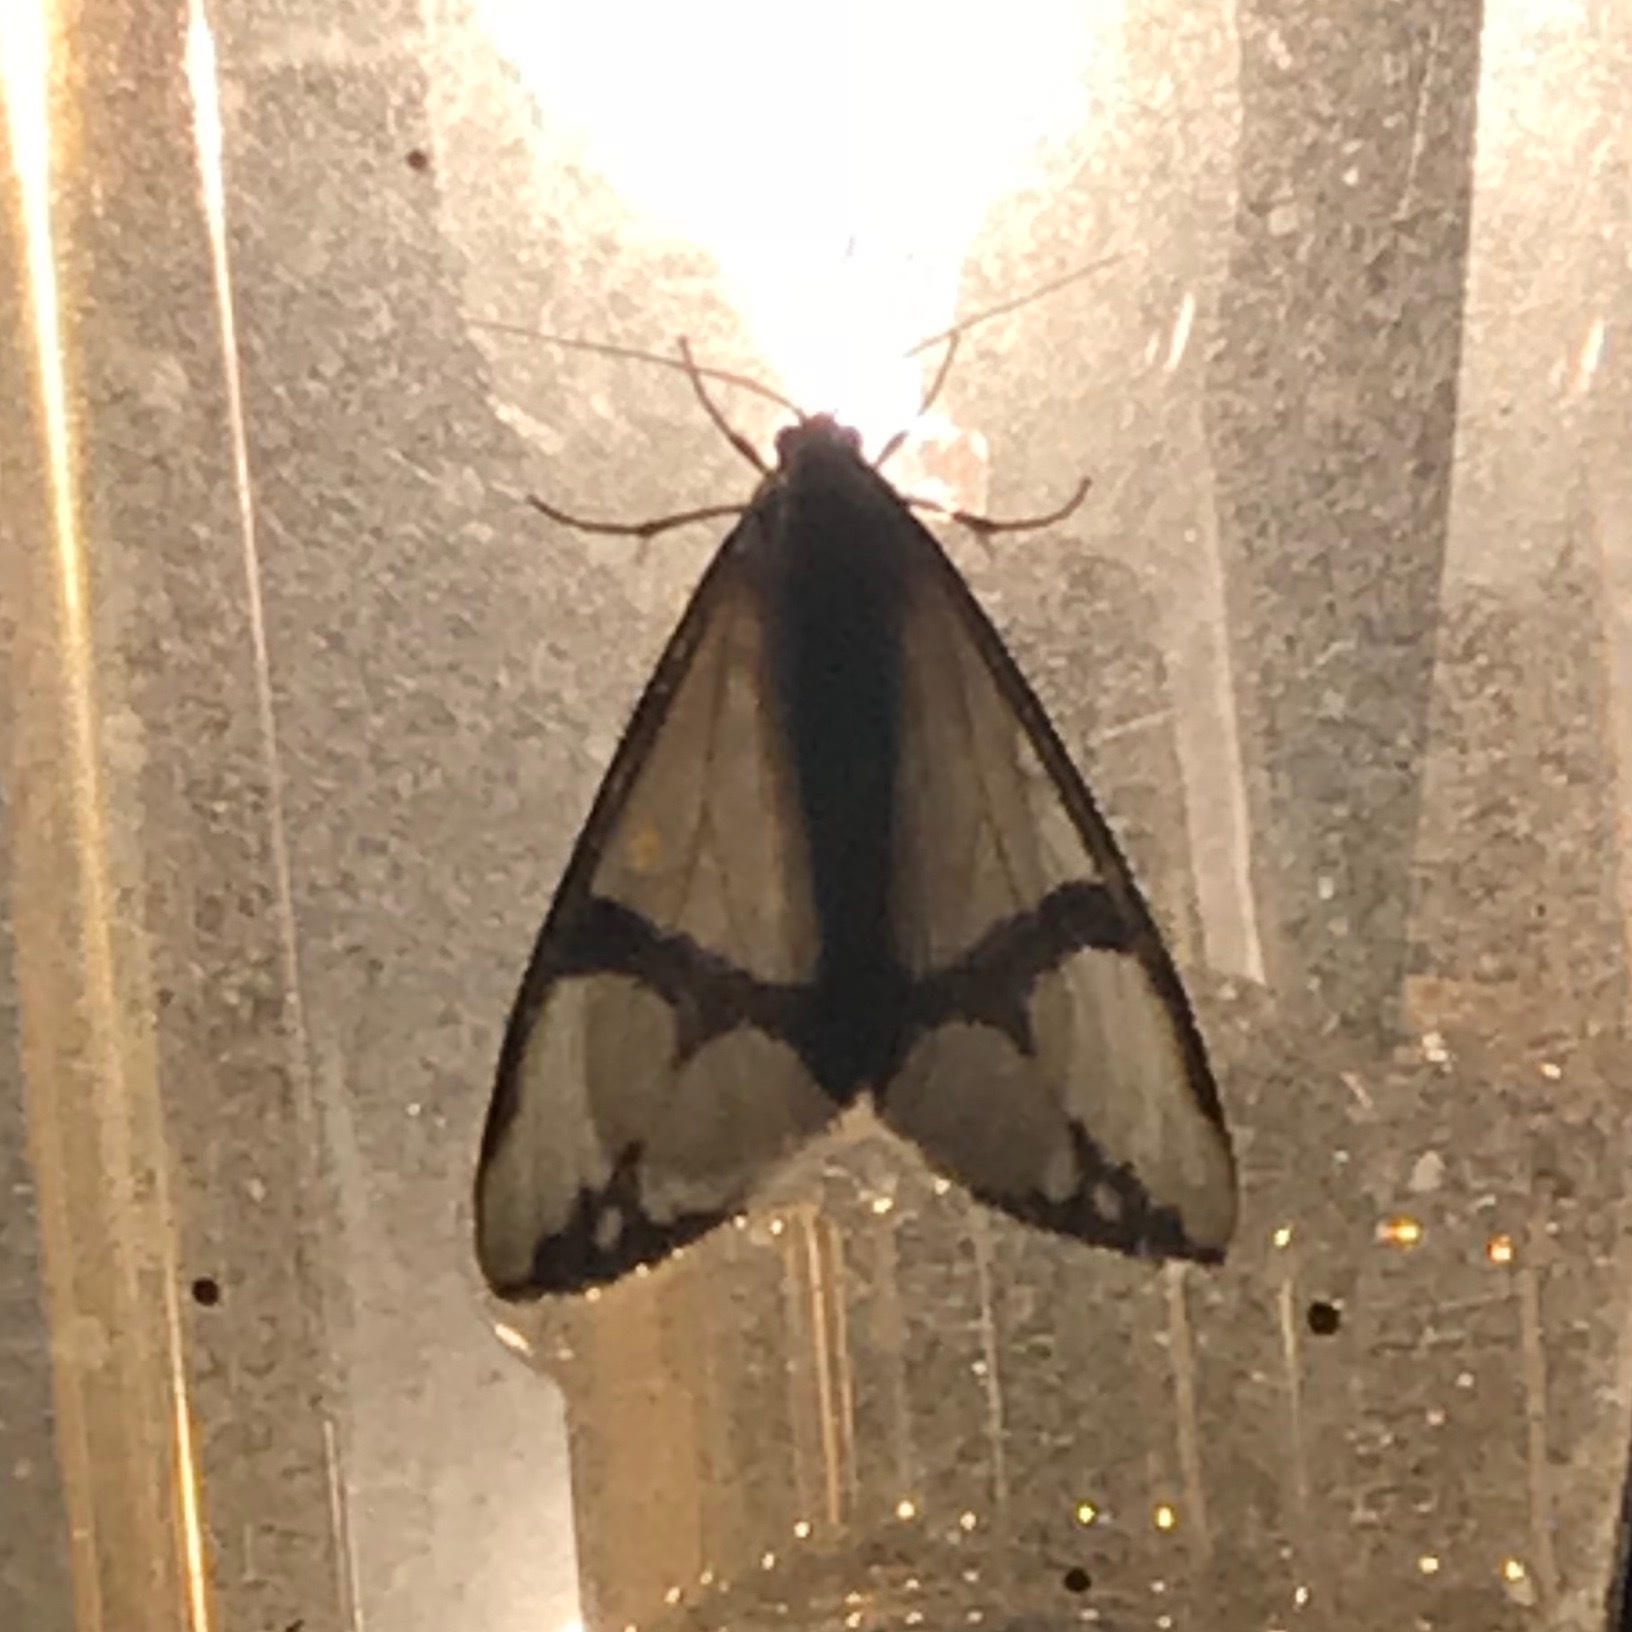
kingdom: Animalia
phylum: Arthropoda
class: Insecta
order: Lepidoptera
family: Erebidae
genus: Haploa
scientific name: Haploa contigua
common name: Neighbor moth
